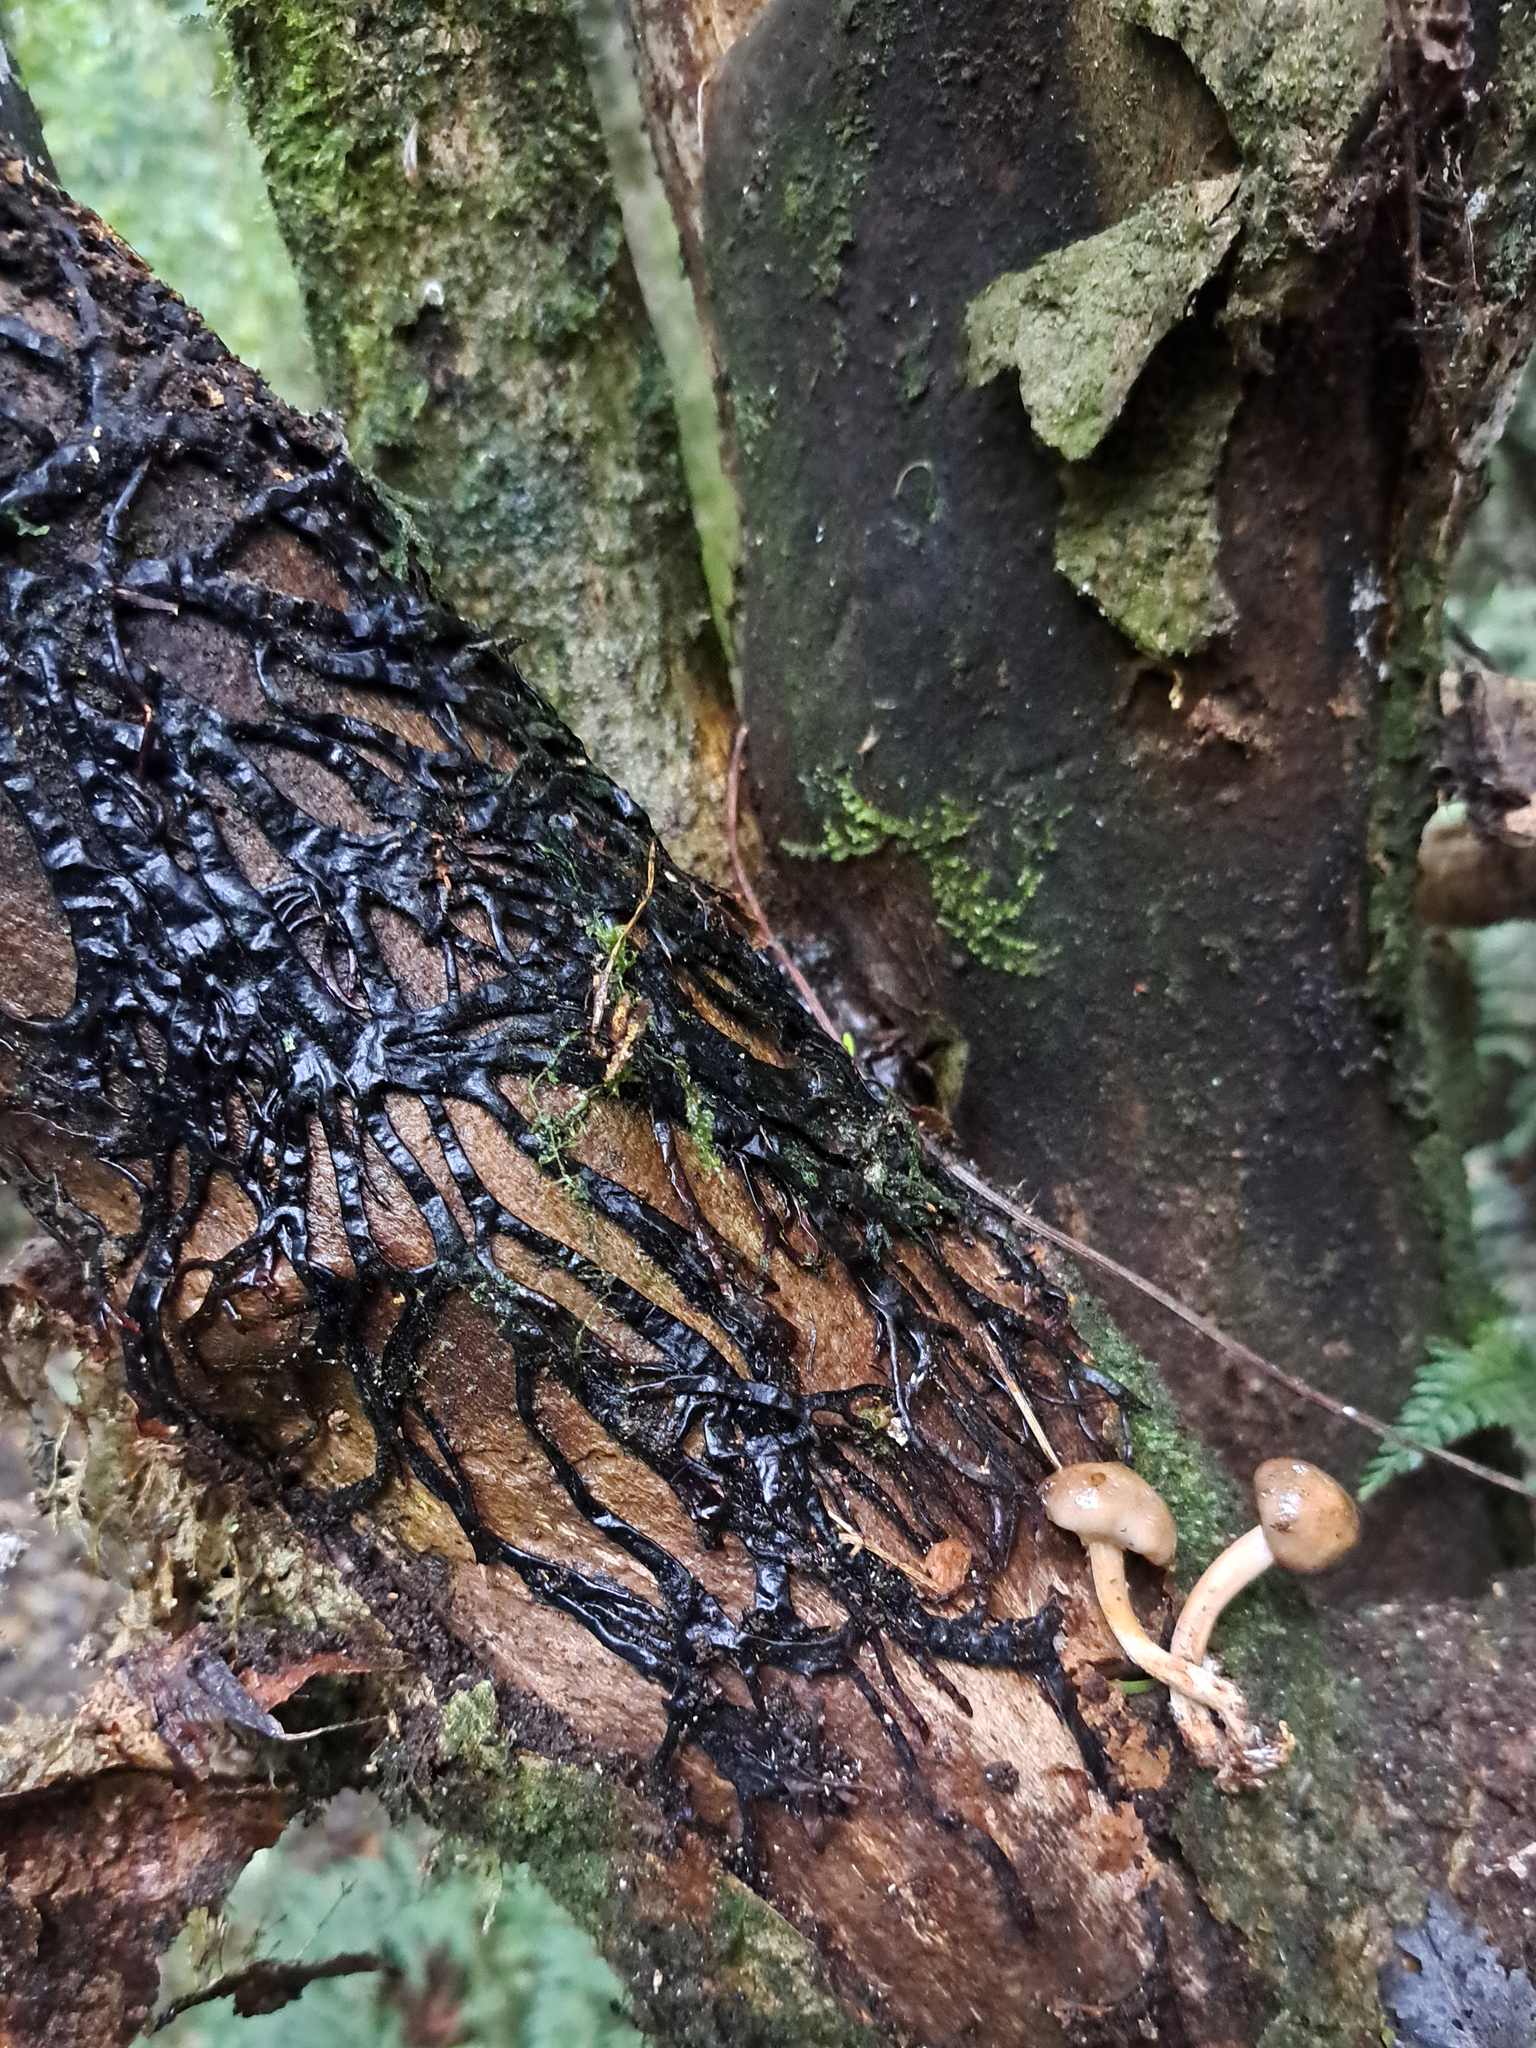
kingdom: Fungi
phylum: Basidiomycota
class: Agaricomycetes
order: Agaricales
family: Physalacriaceae
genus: Armillaria
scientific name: Armillaria novae-zelandiae
